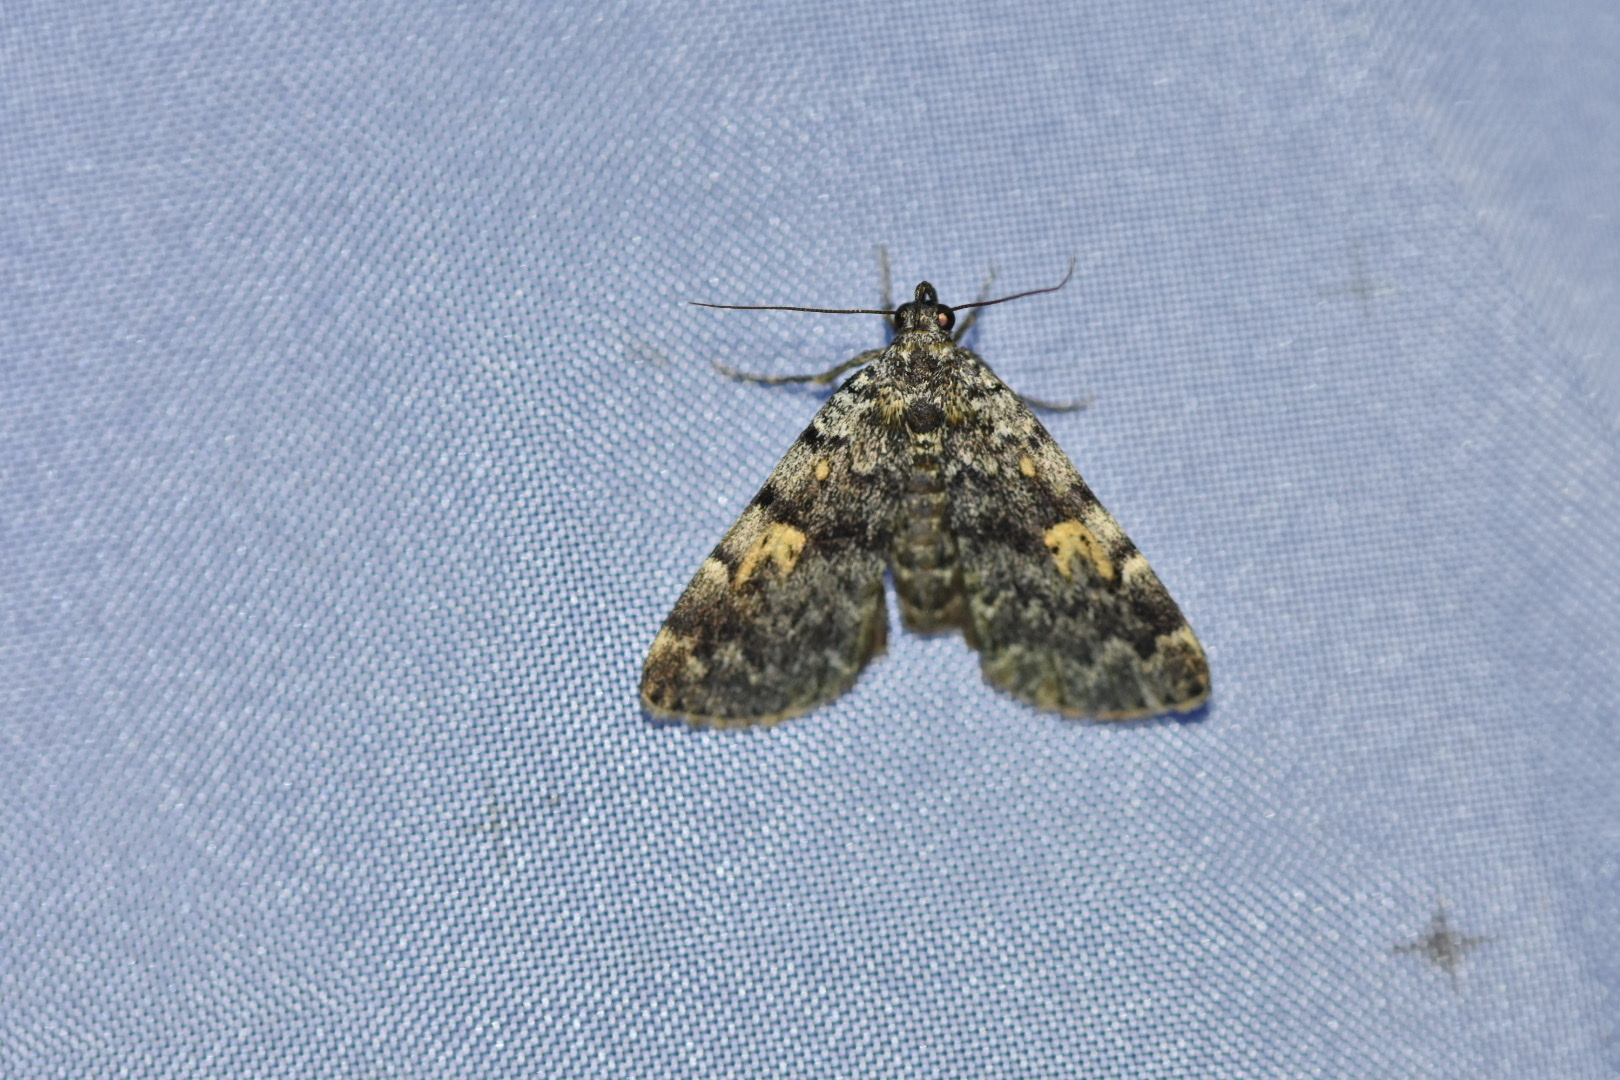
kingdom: Animalia
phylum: Arthropoda
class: Insecta
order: Lepidoptera
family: Erebidae
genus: Idia
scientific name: Idia calvaria
